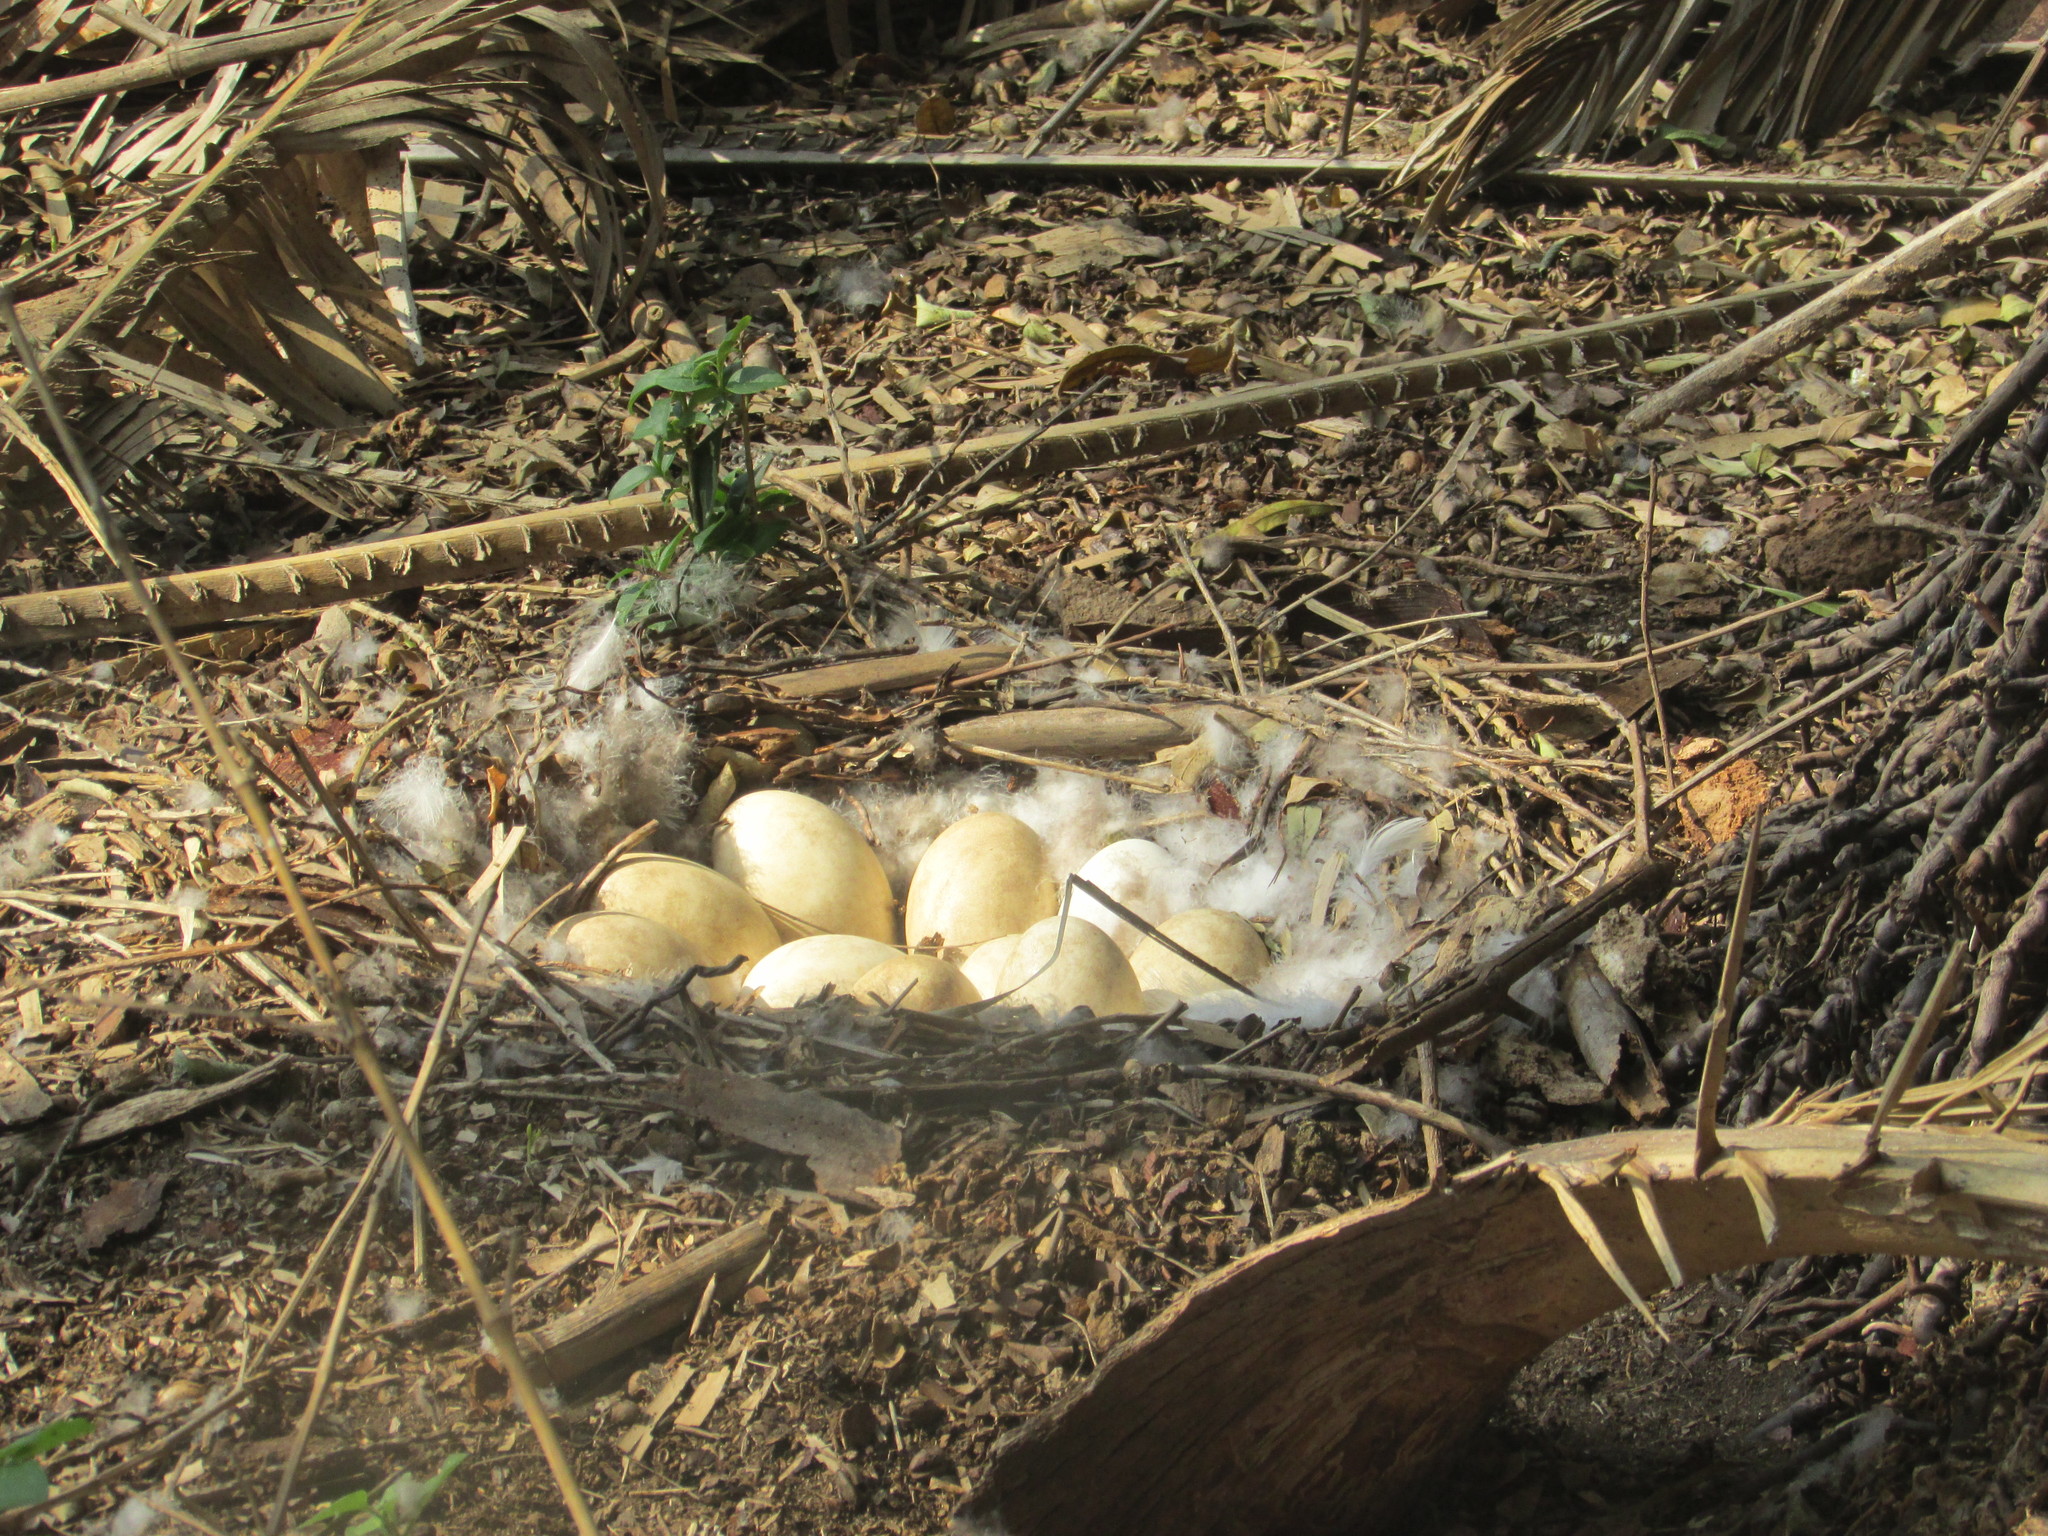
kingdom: Animalia
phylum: Chordata
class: Aves
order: Anseriformes
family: Anatidae
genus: Anser
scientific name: Anser anser
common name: Greylag goose
